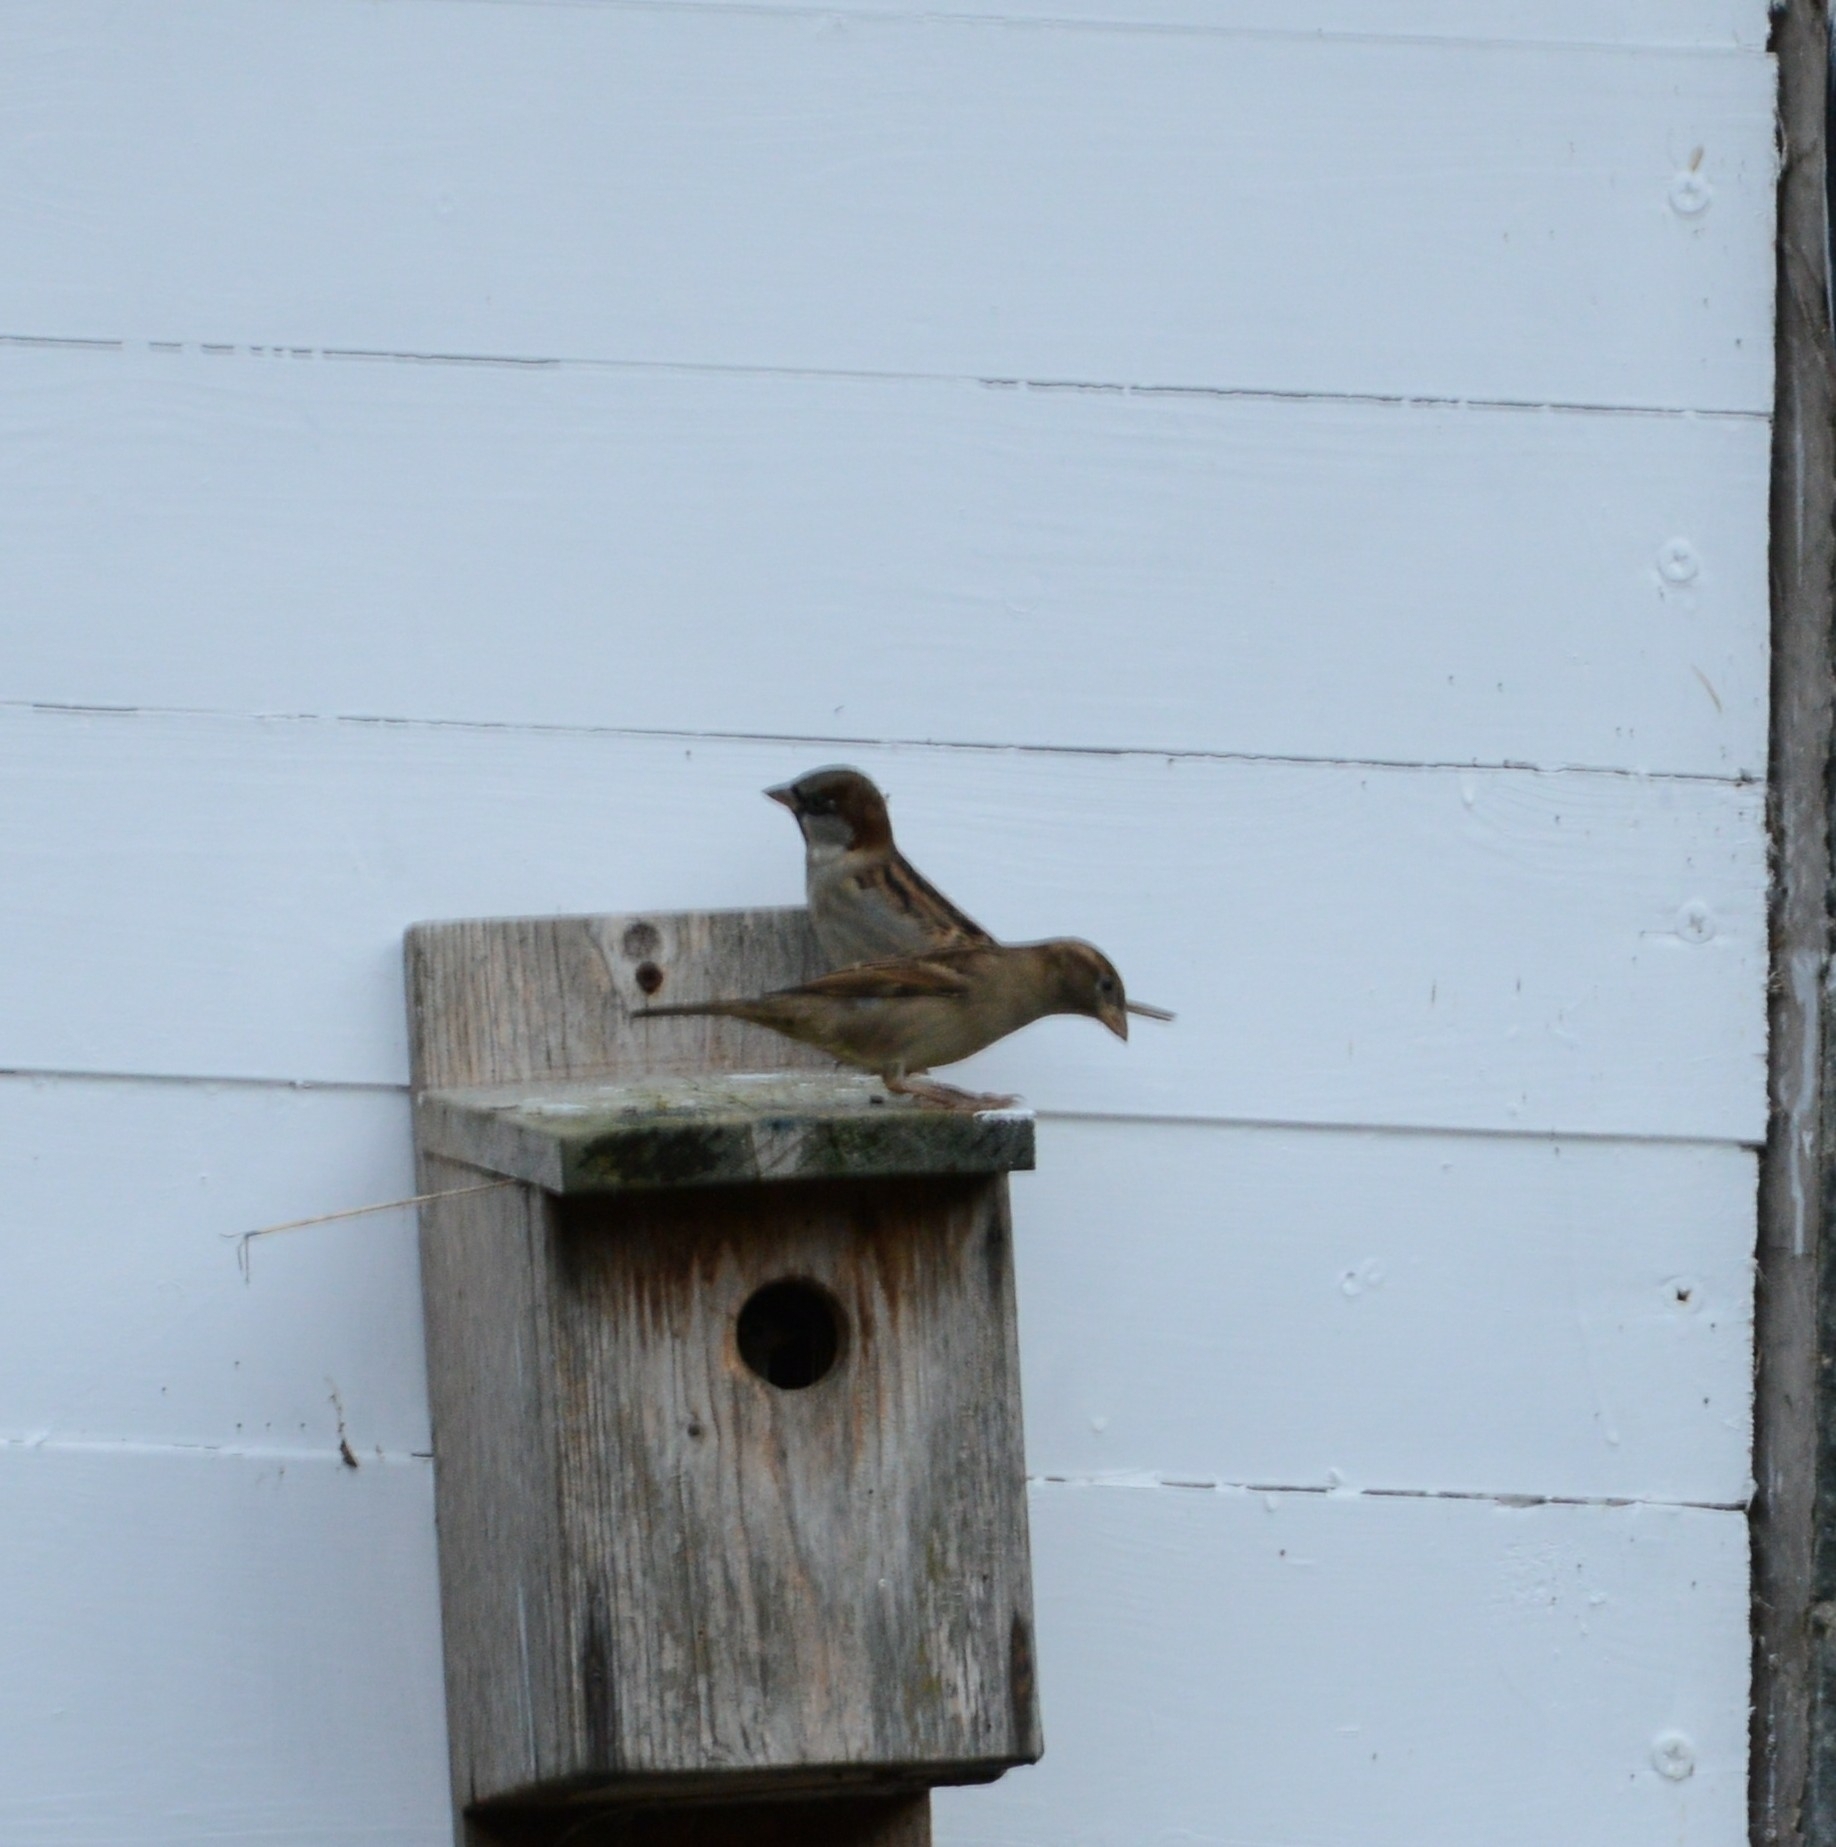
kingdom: Animalia
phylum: Chordata
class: Aves
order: Passeriformes
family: Passeridae
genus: Passer
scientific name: Passer domesticus
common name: House sparrow
